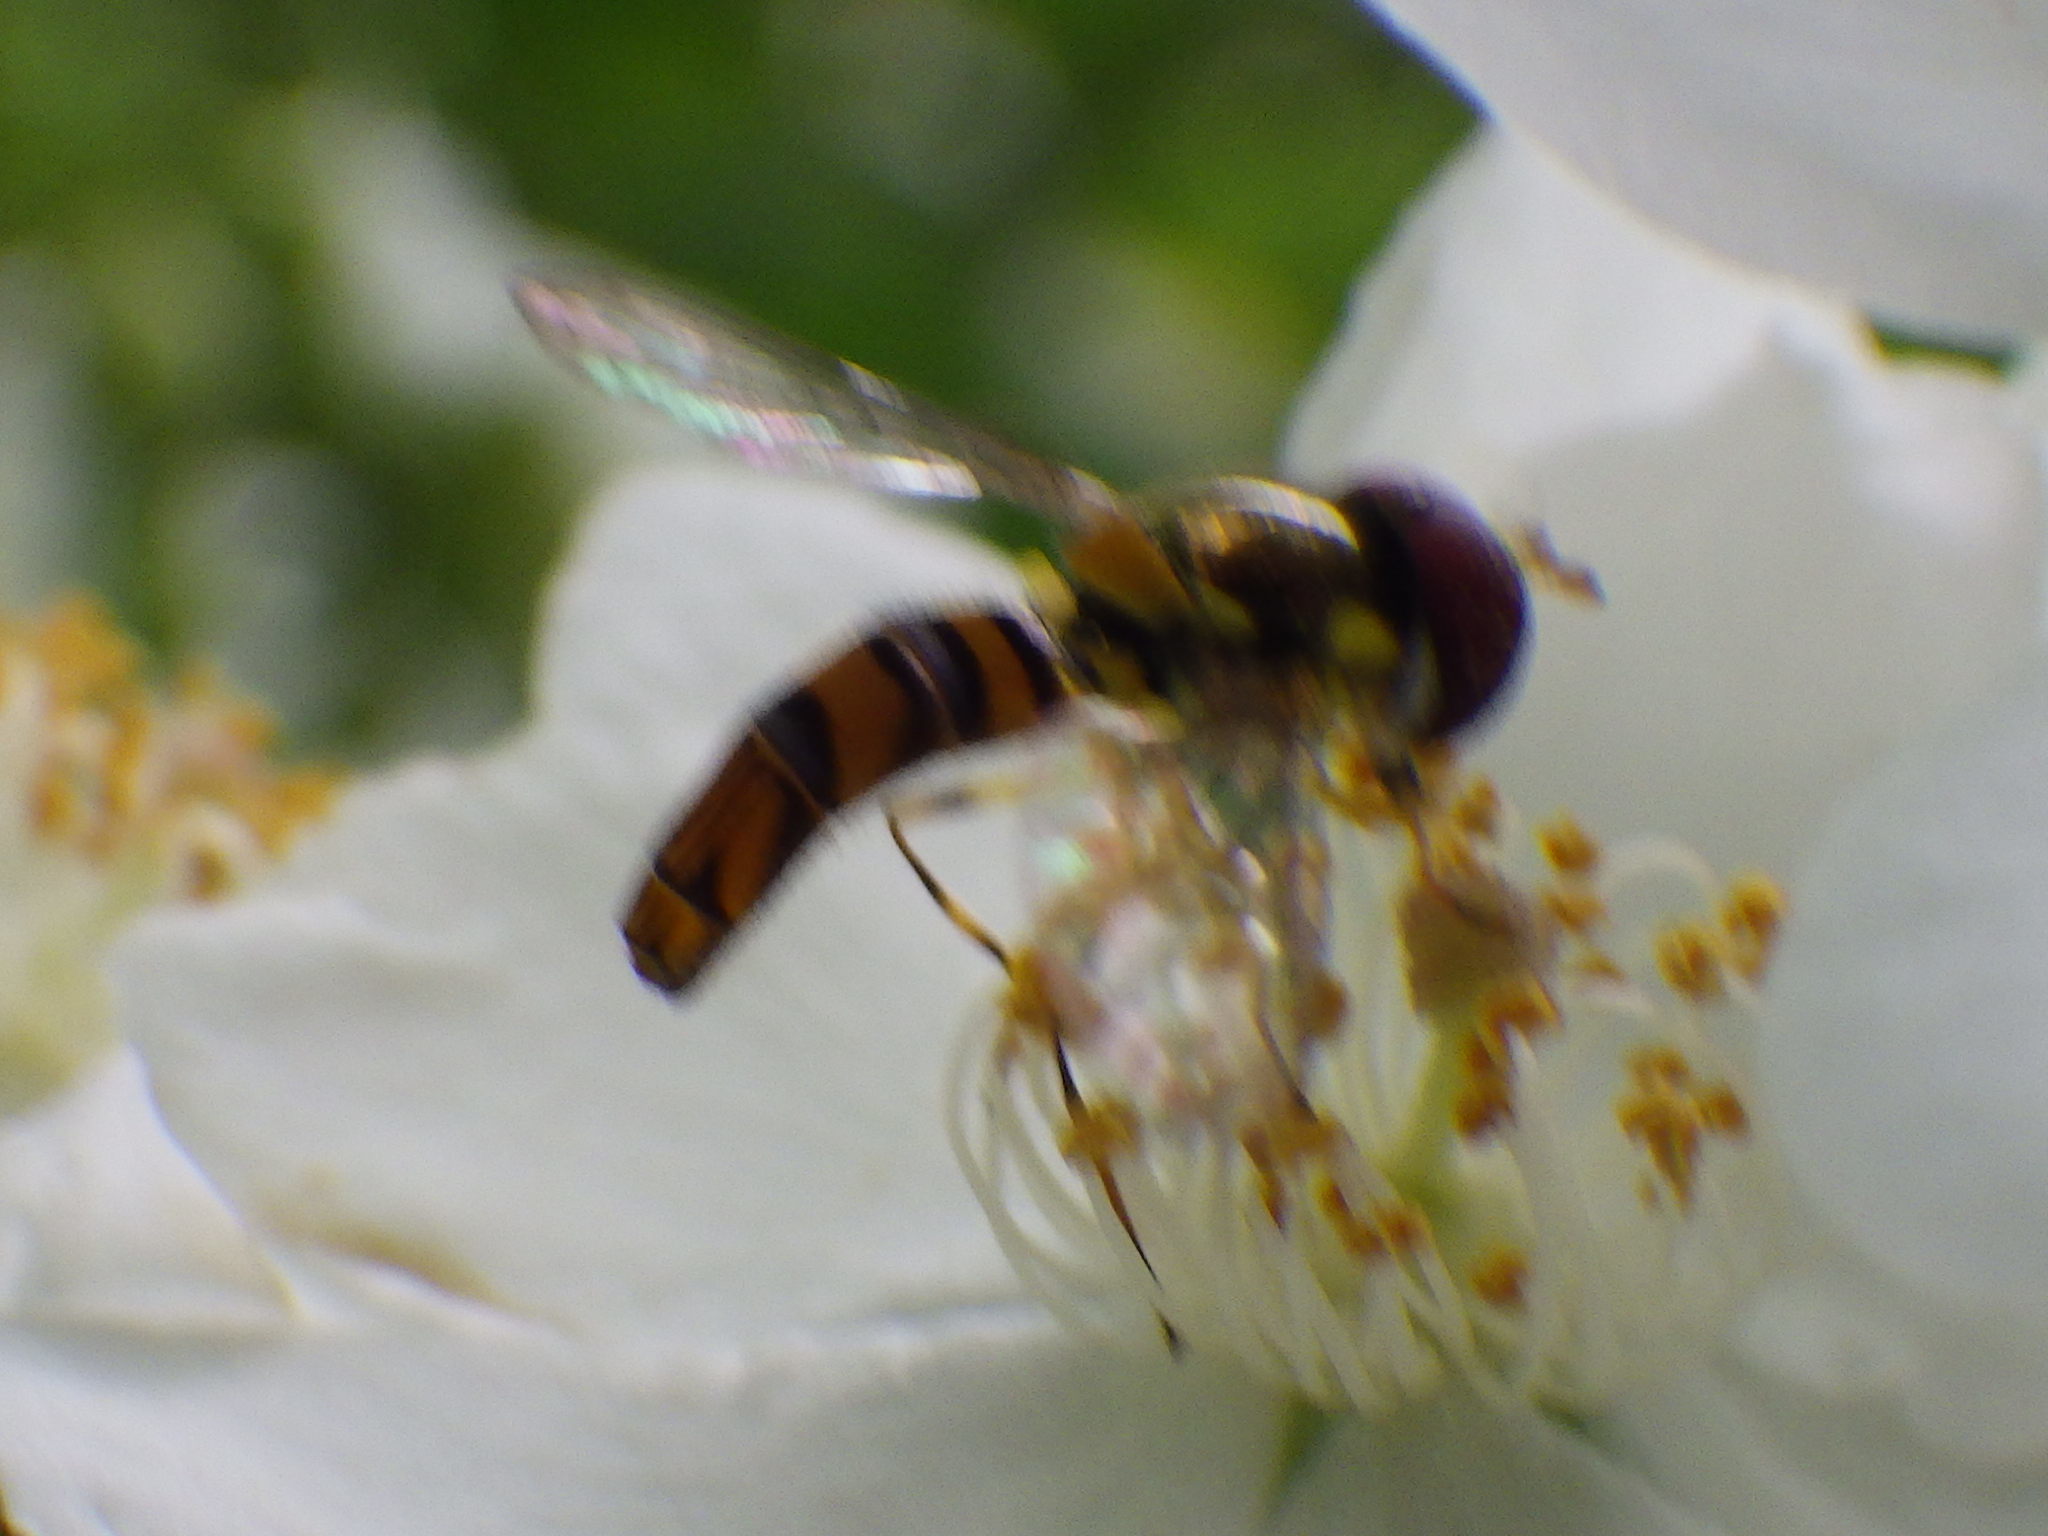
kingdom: Animalia
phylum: Arthropoda
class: Insecta
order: Diptera
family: Syrphidae
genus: Allograpta
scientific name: Allograpta obliqua
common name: Common oblique syrphid
